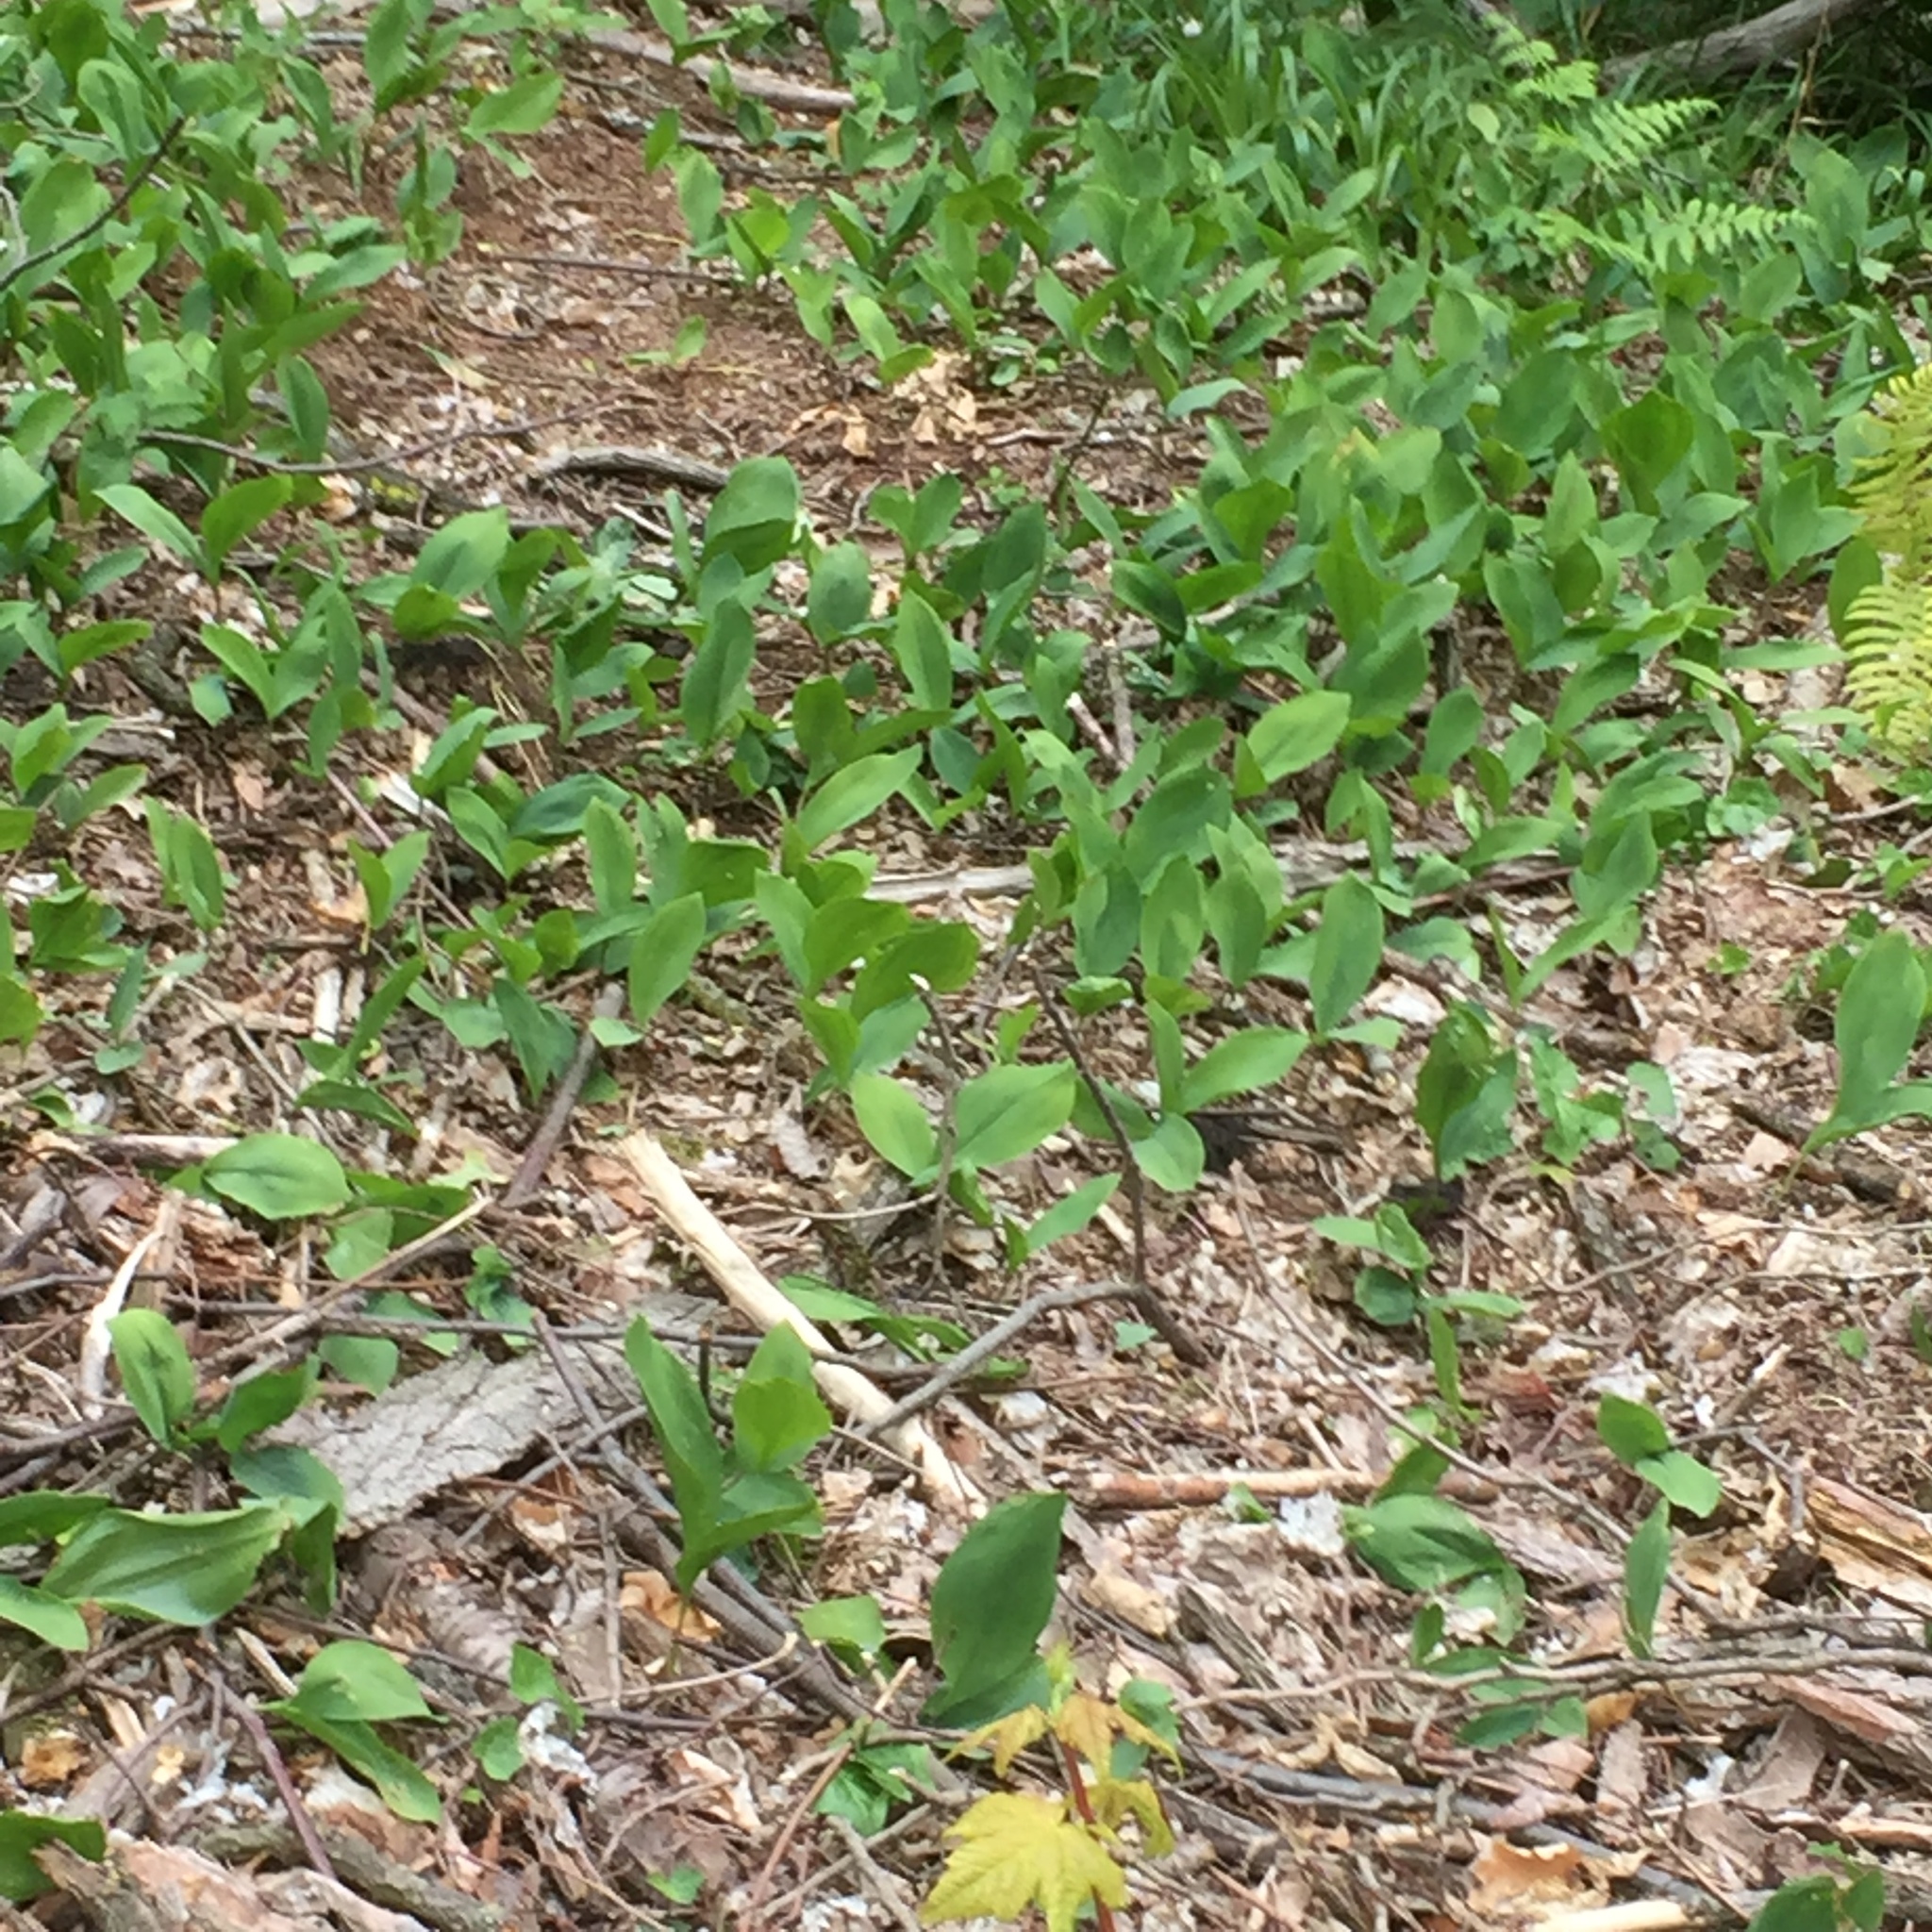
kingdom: Plantae
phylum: Tracheophyta
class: Liliopsida
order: Asparagales
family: Asparagaceae
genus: Convallaria
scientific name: Convallaria majalis
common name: Lily-of-the-valley
